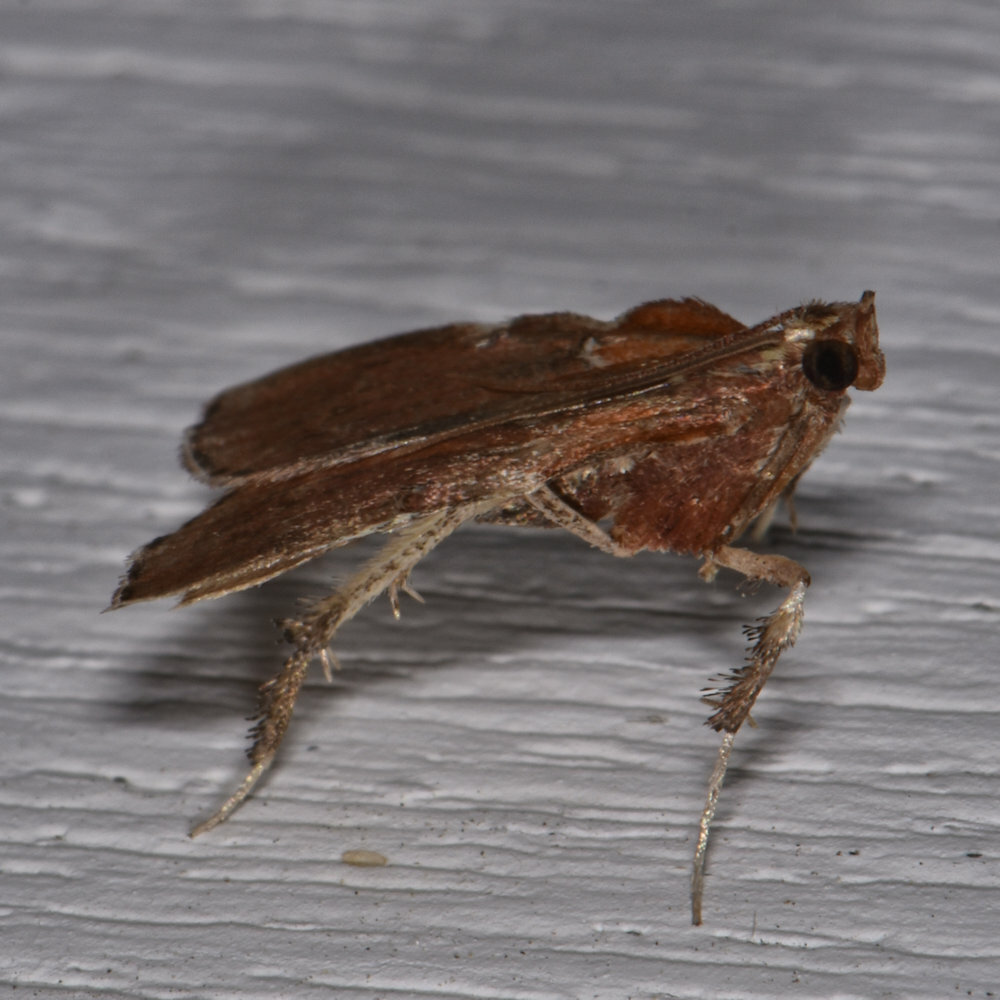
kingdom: Animalia
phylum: Arthropoda
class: Insecta
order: Lepidoptera
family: Pyralidae
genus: Galasa
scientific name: Galasa nigrinodis
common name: Boxwood leaftier moth
